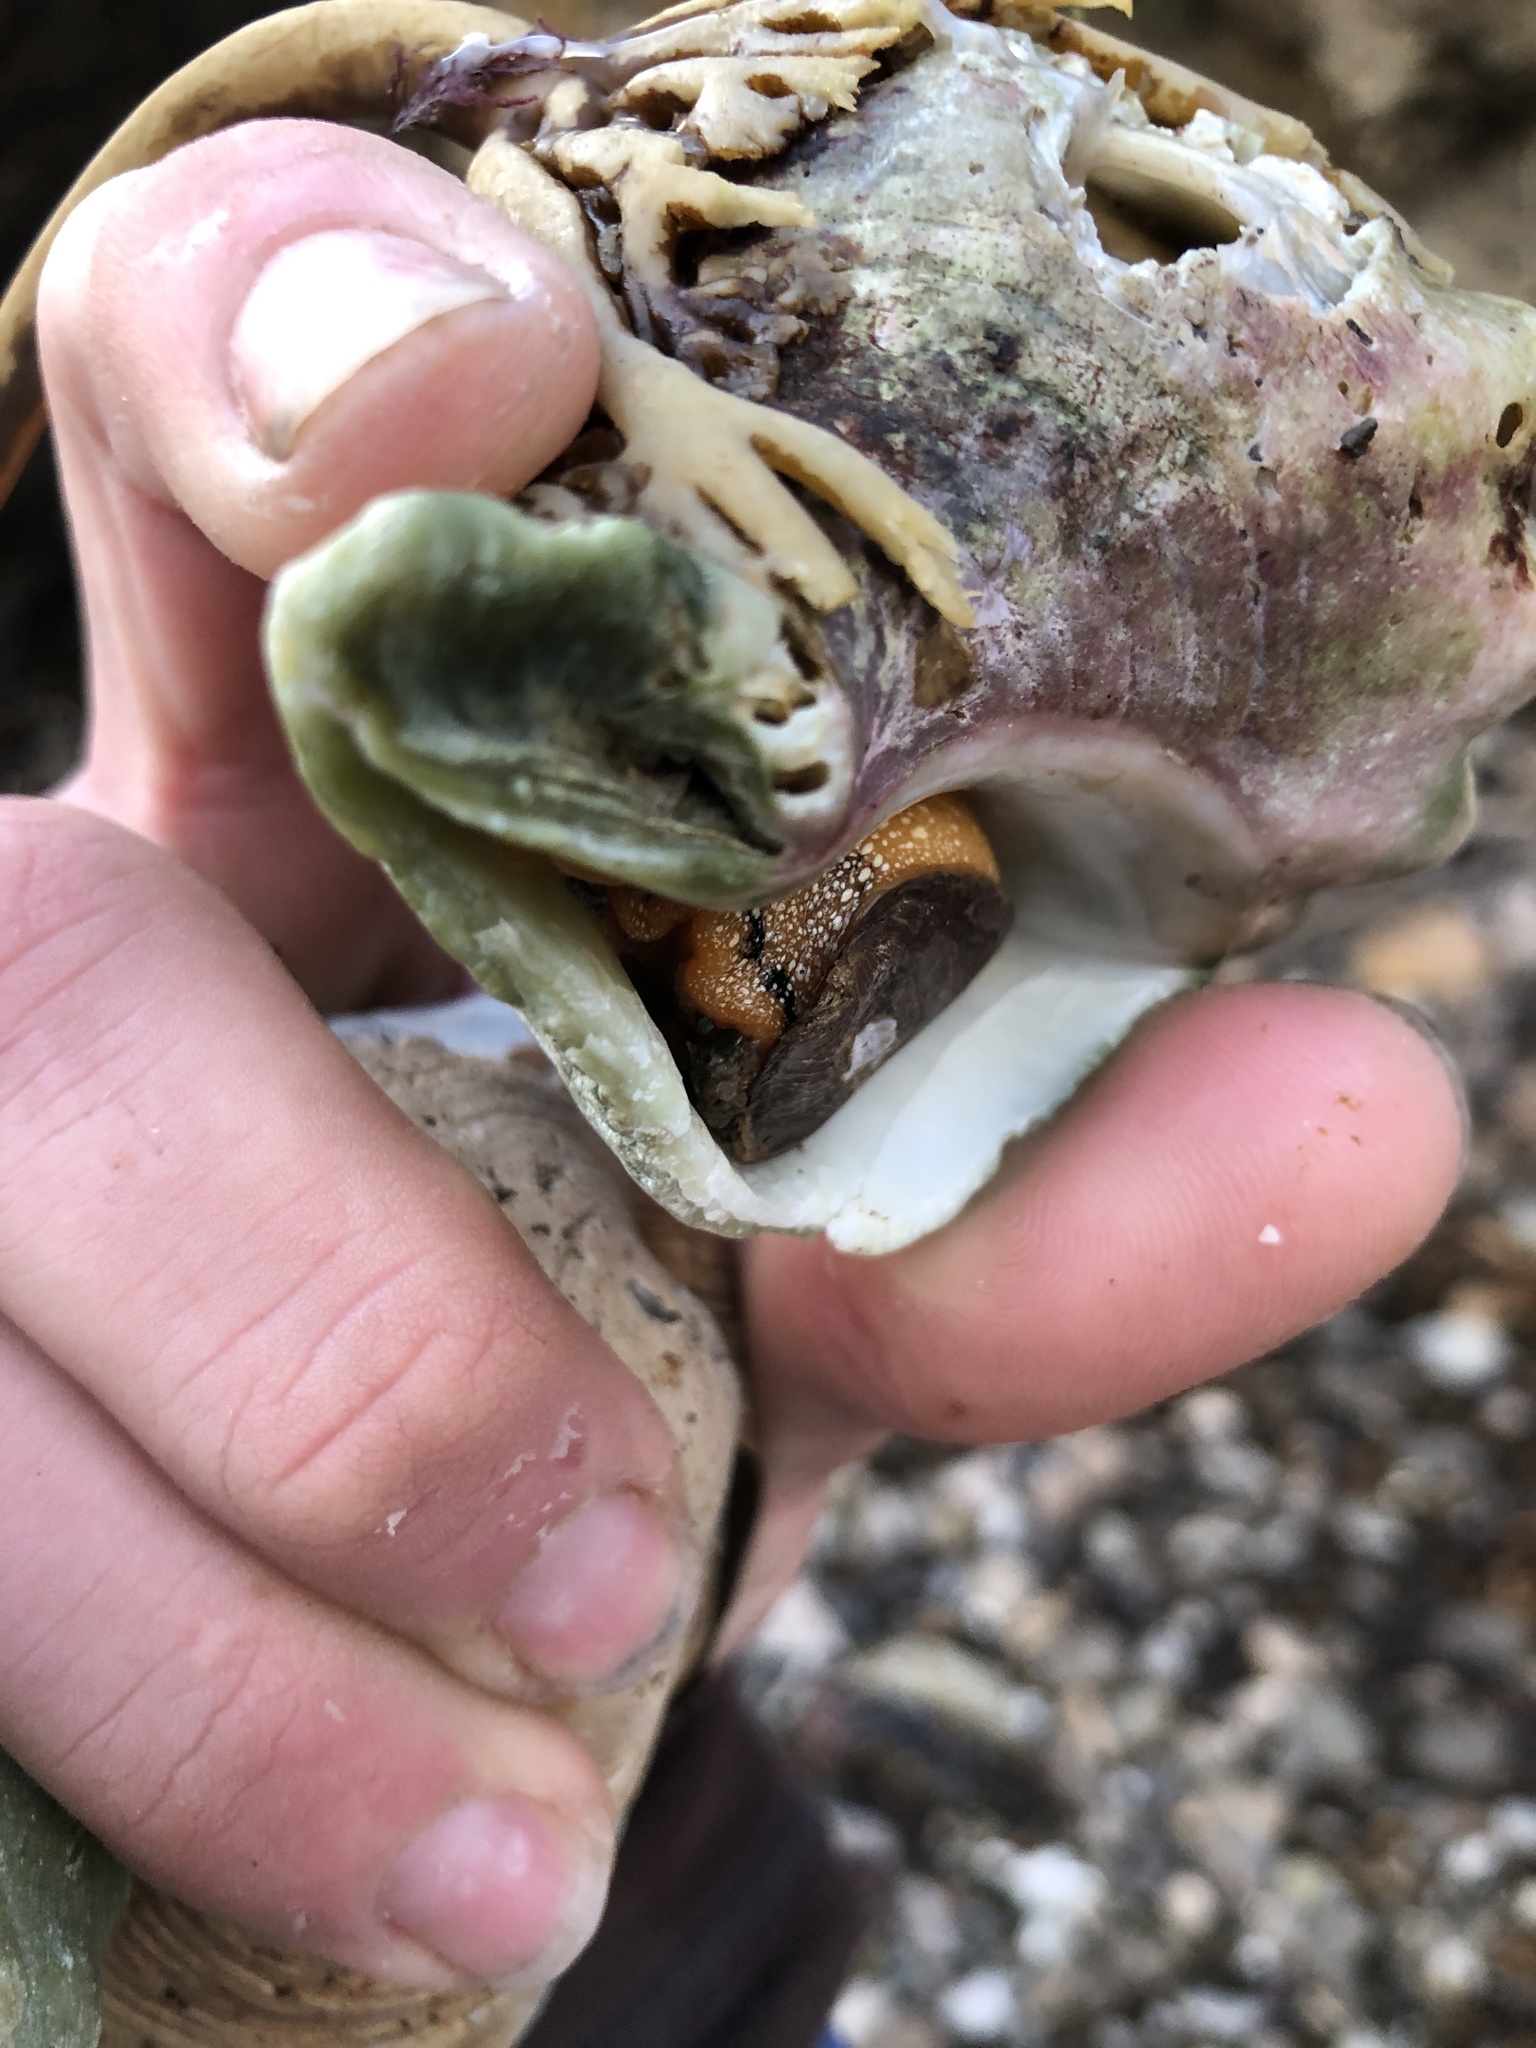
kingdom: Animalia
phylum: Mollusca
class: Gastropoda
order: Neogastropoda
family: Austrosiphonidae
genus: Kelletia
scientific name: Kelletia kelletii
